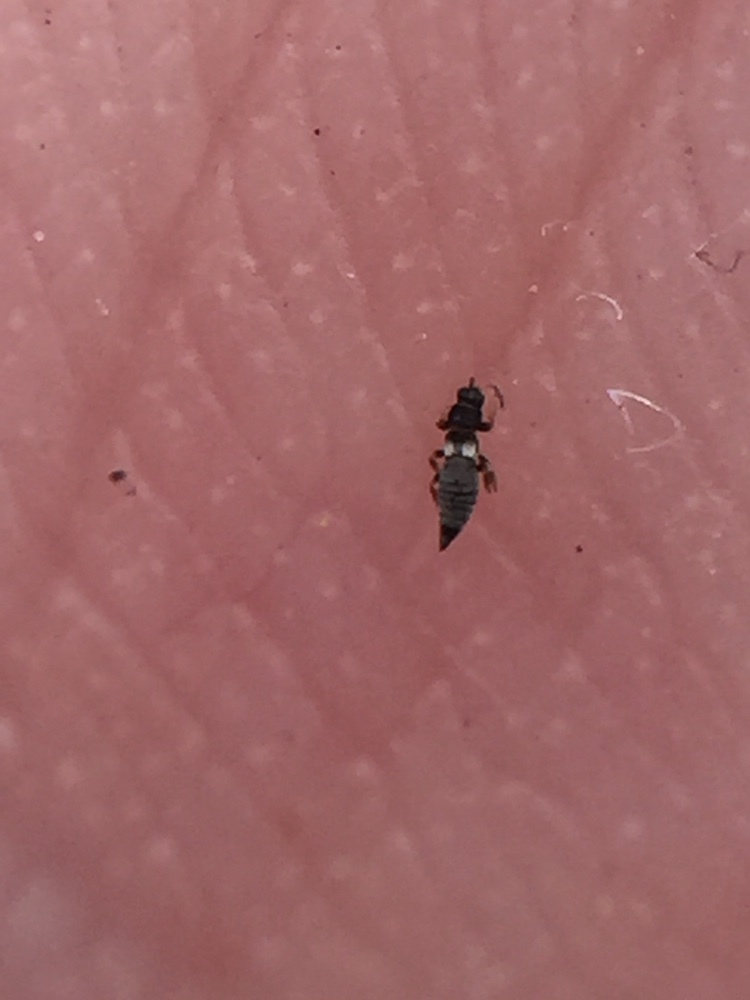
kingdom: Animalia
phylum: Arthropoda
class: Insecta
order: Thysanoptera
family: Thripidae
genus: Sericothrips
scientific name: Sericothrips staphylinus
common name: Gorse thrips
